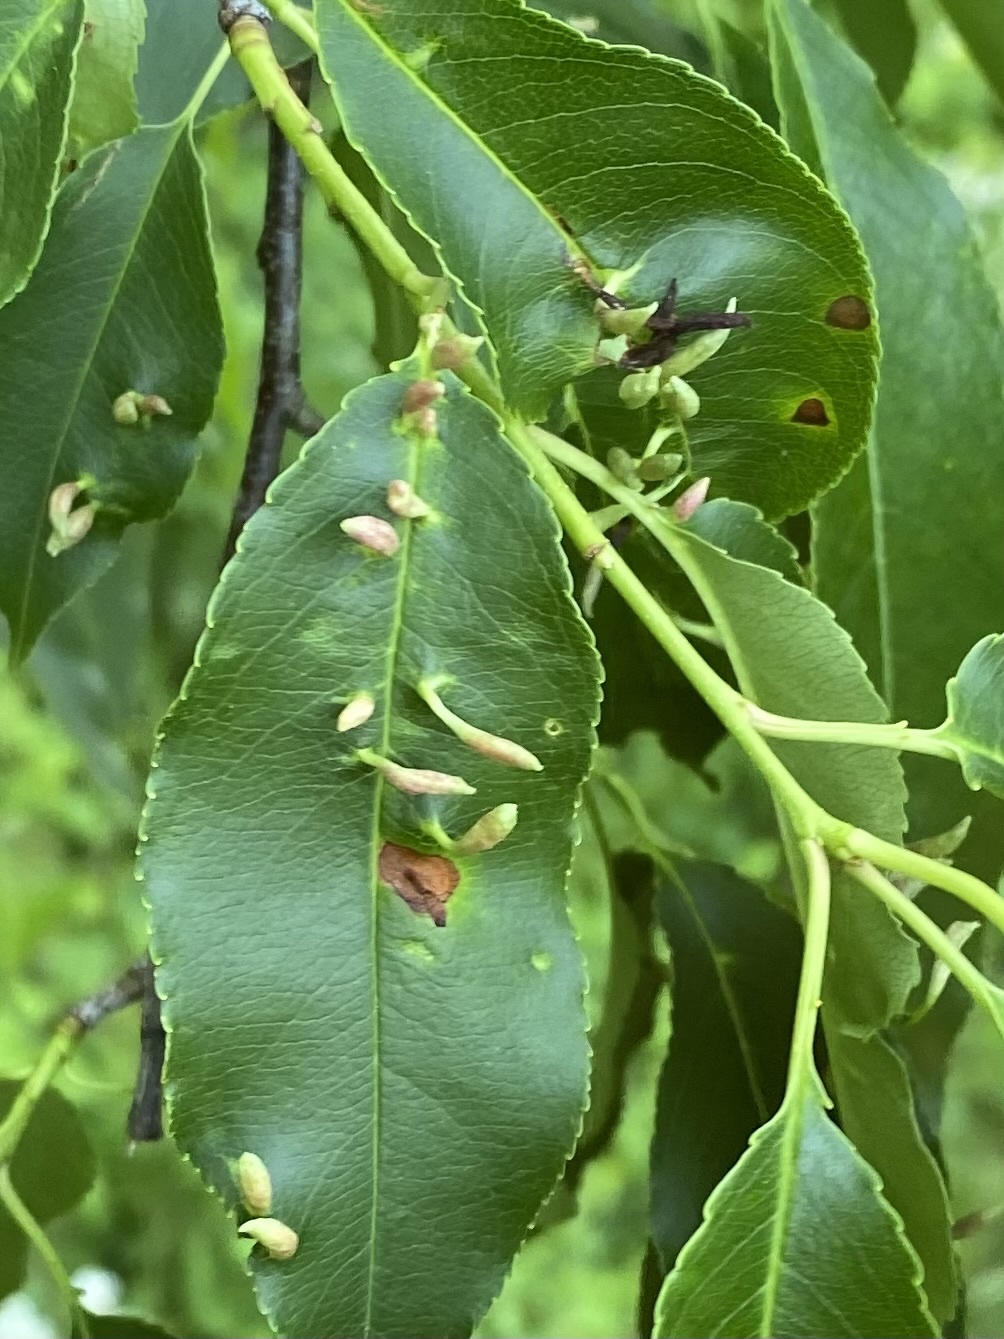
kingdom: Animalia
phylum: Arthropoda
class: Arachnida
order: Trombidiformes
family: Eriophyidae
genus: Eriophyes
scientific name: Eriophyes
